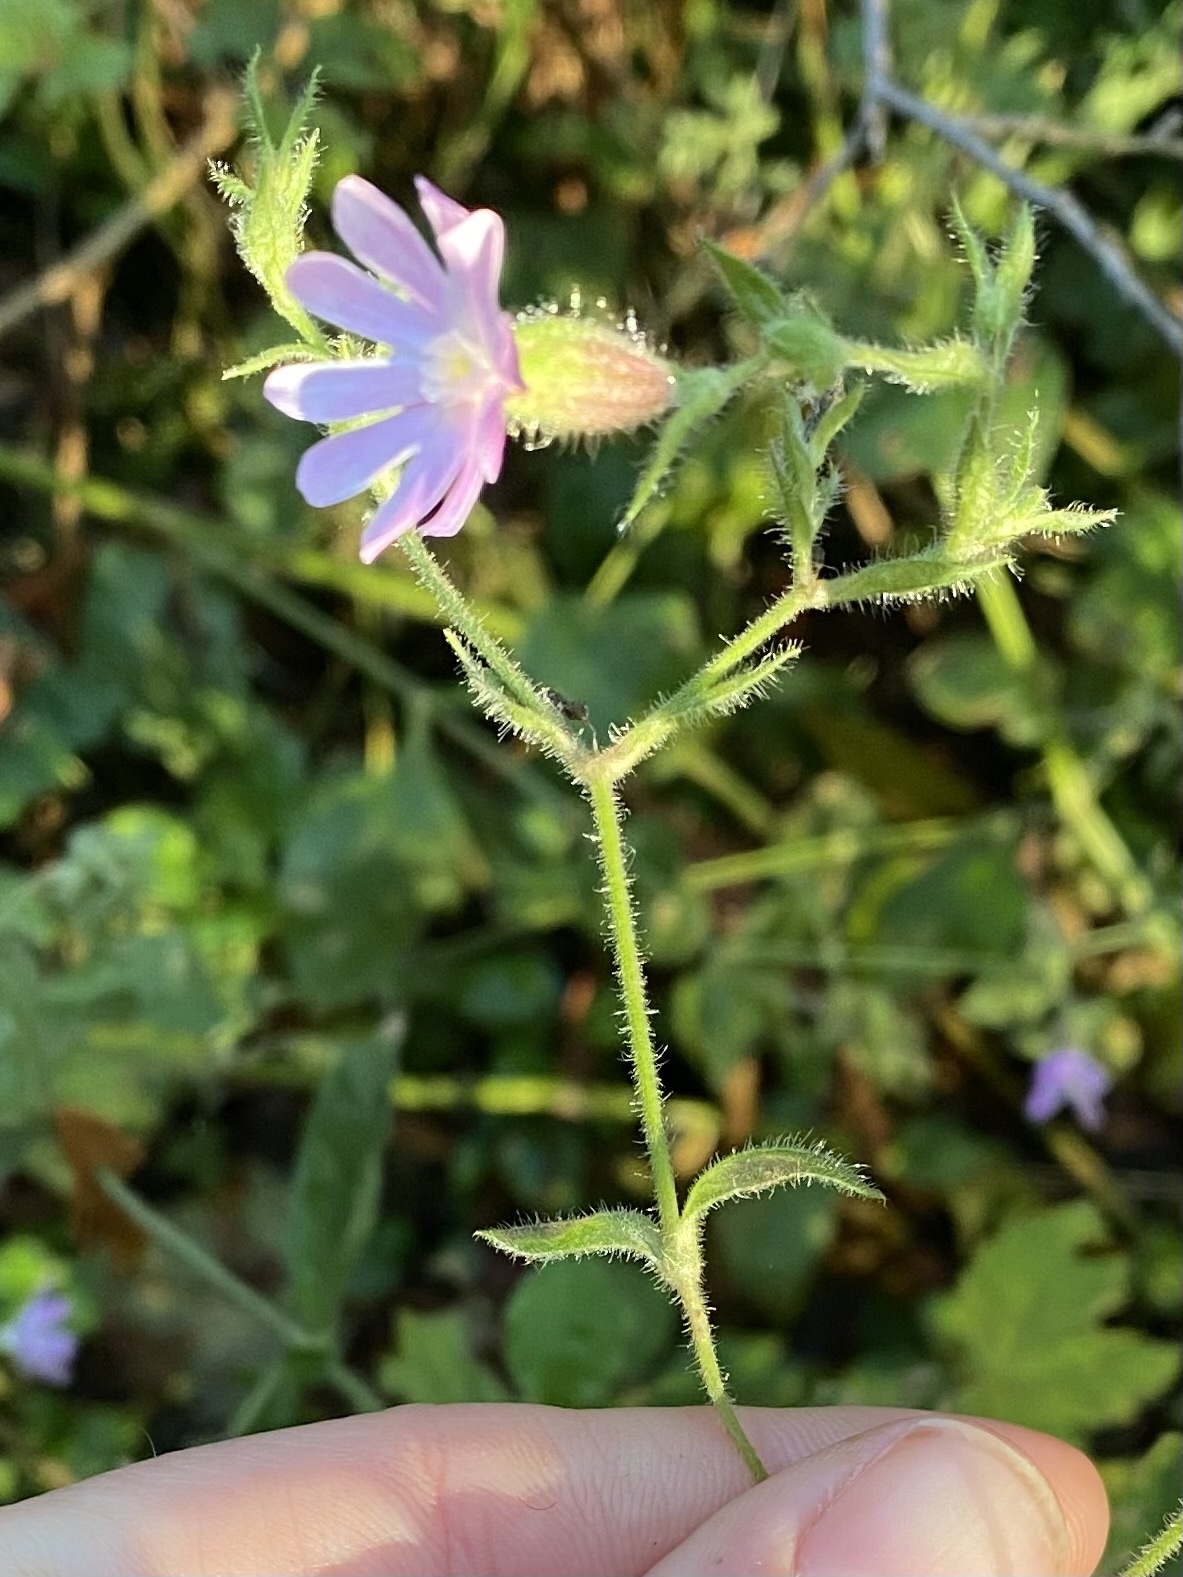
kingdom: Plantae
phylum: Tracheophyta
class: Magnoliopsida
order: Caryophyllales
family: Caryophyllaceae
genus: Silene
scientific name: Silene dioica
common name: Red campion
